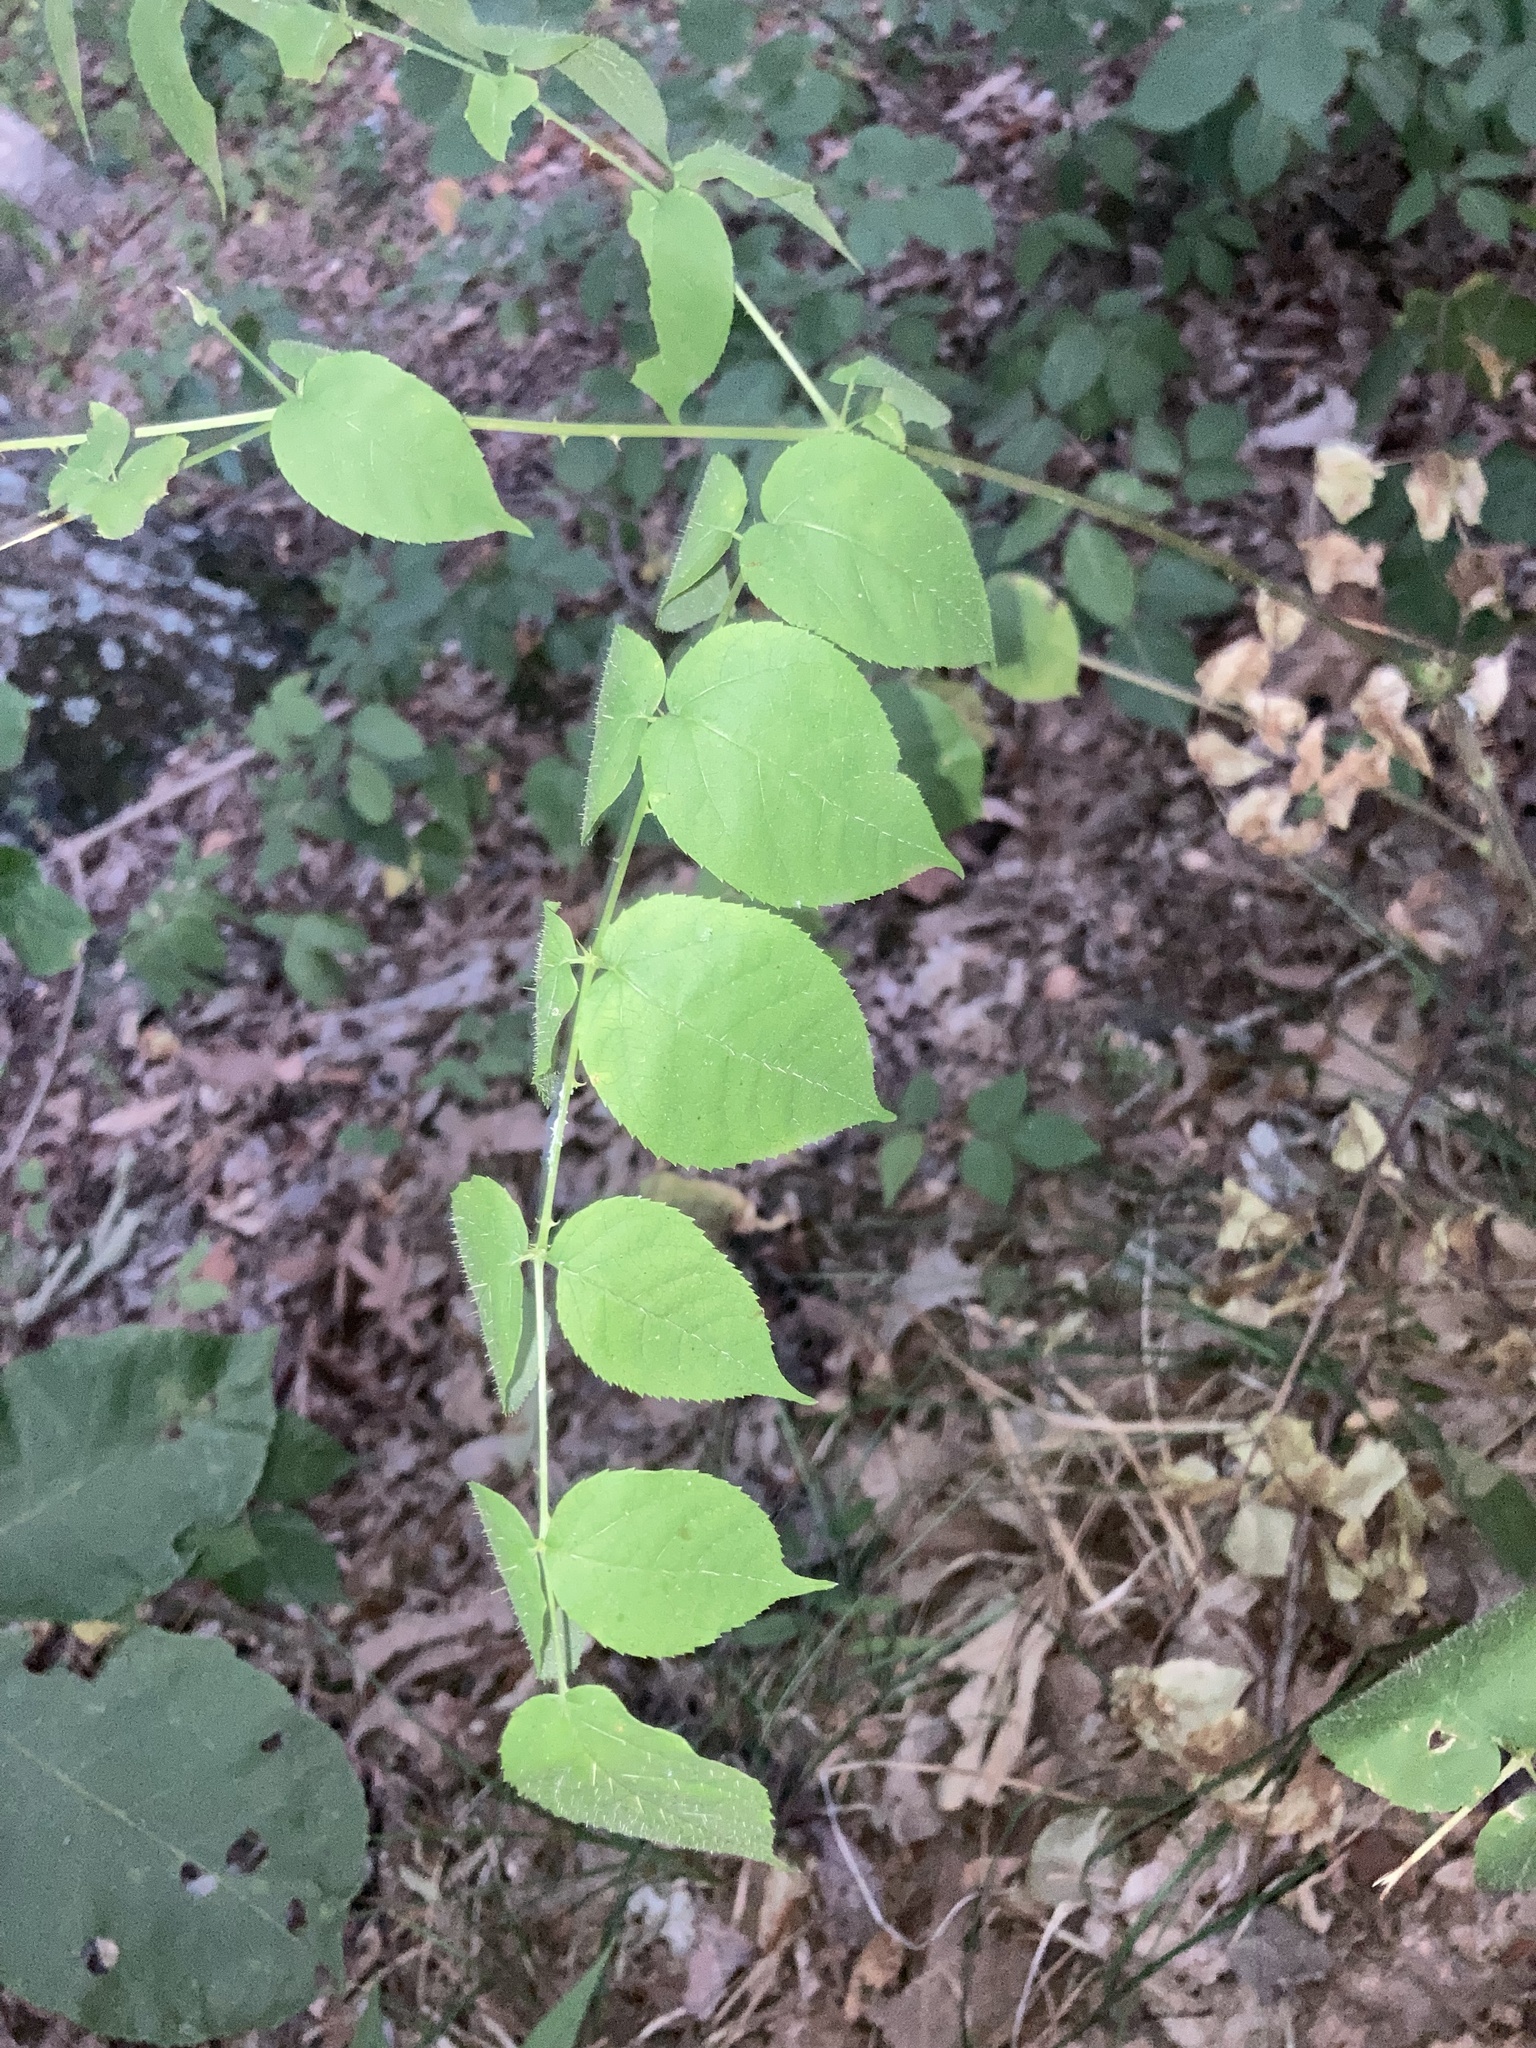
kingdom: Plantae
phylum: Tracheophyta
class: Magnoliopsida
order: Apiales
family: Araliaceae
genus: Aralia
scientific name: Aralia spinosa
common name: Hercules'-club
